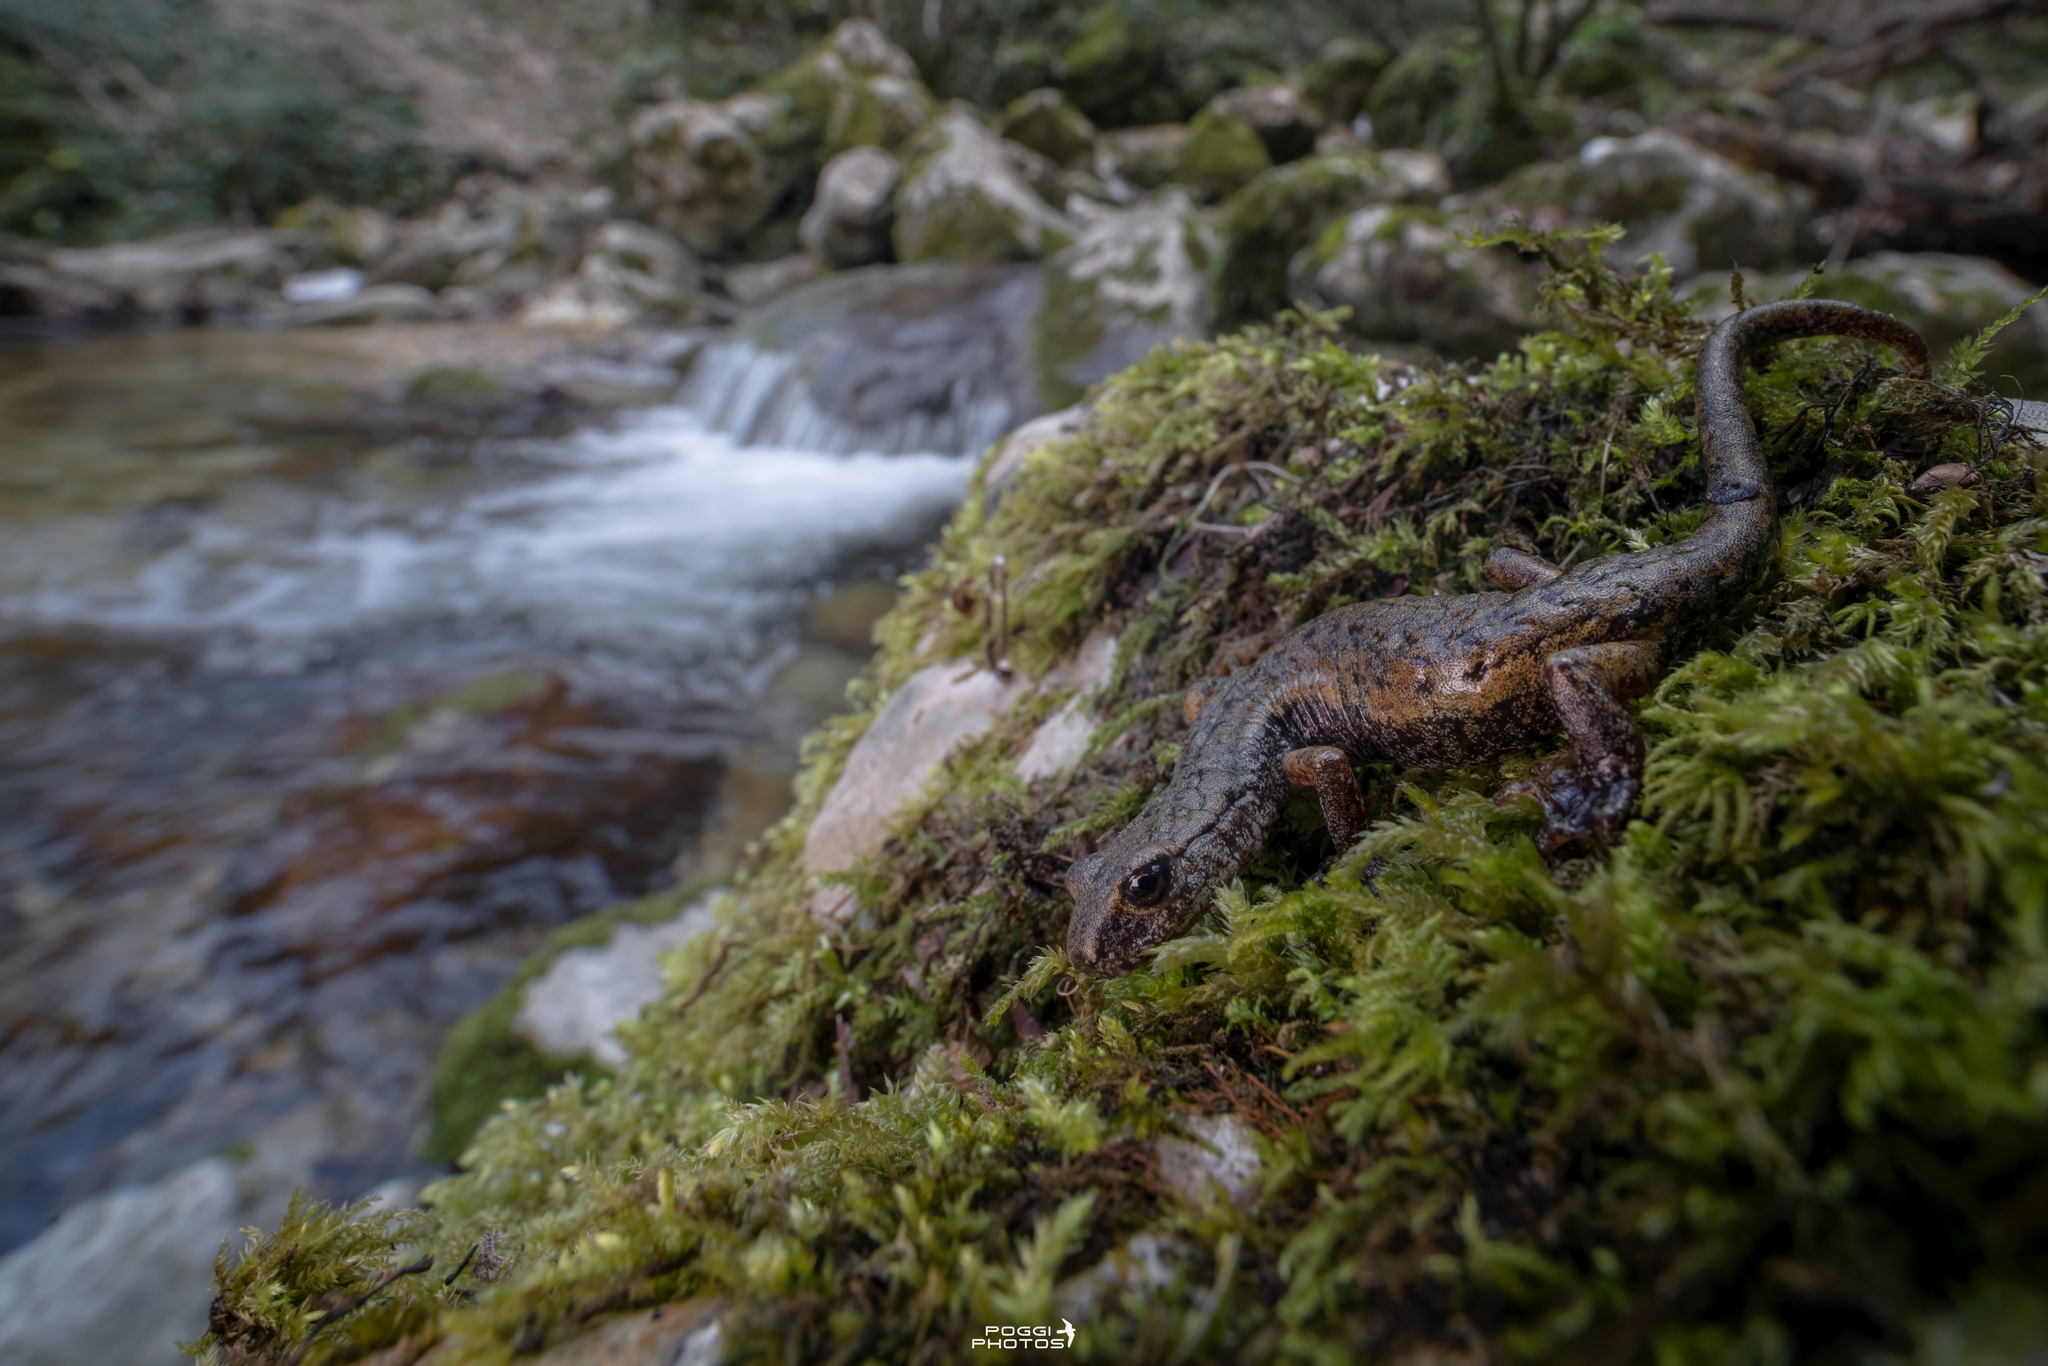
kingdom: Animalia
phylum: Chordata
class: Amphibia
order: Caudata
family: Plethodontidae
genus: Speleomantes
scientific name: Speleomantes italicus
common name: Italian cave salamander
